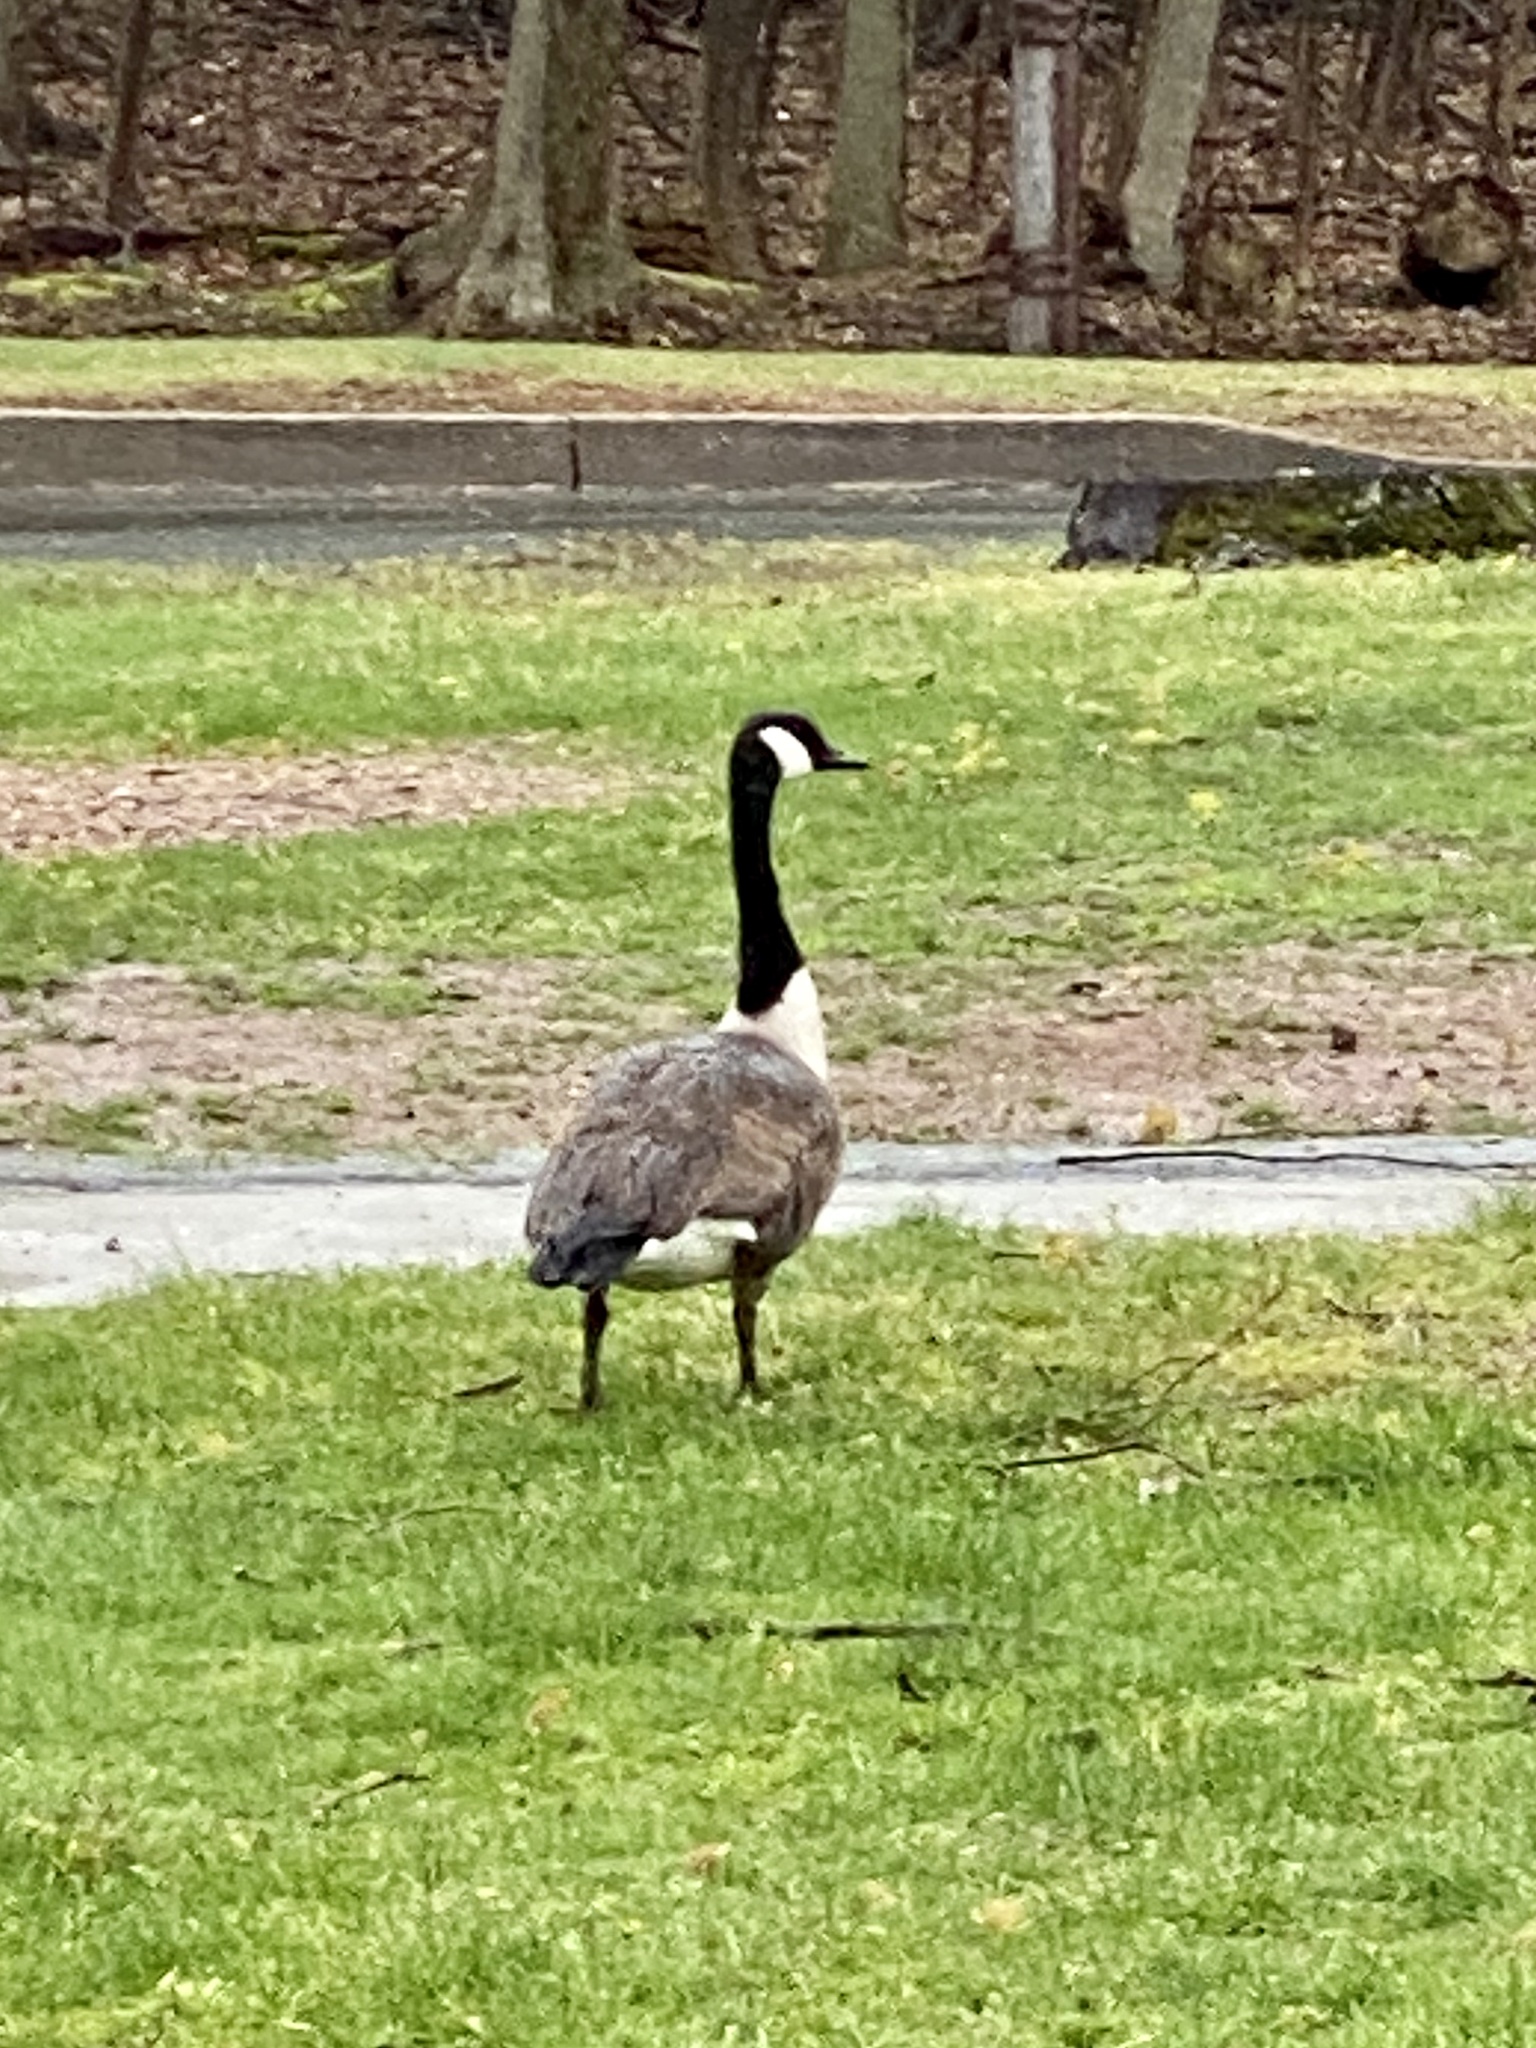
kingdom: Animalia
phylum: Chordata
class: Aves
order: Anseriformes
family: Anatidae
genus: Branta
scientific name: Branta canadensis
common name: Canada goose
